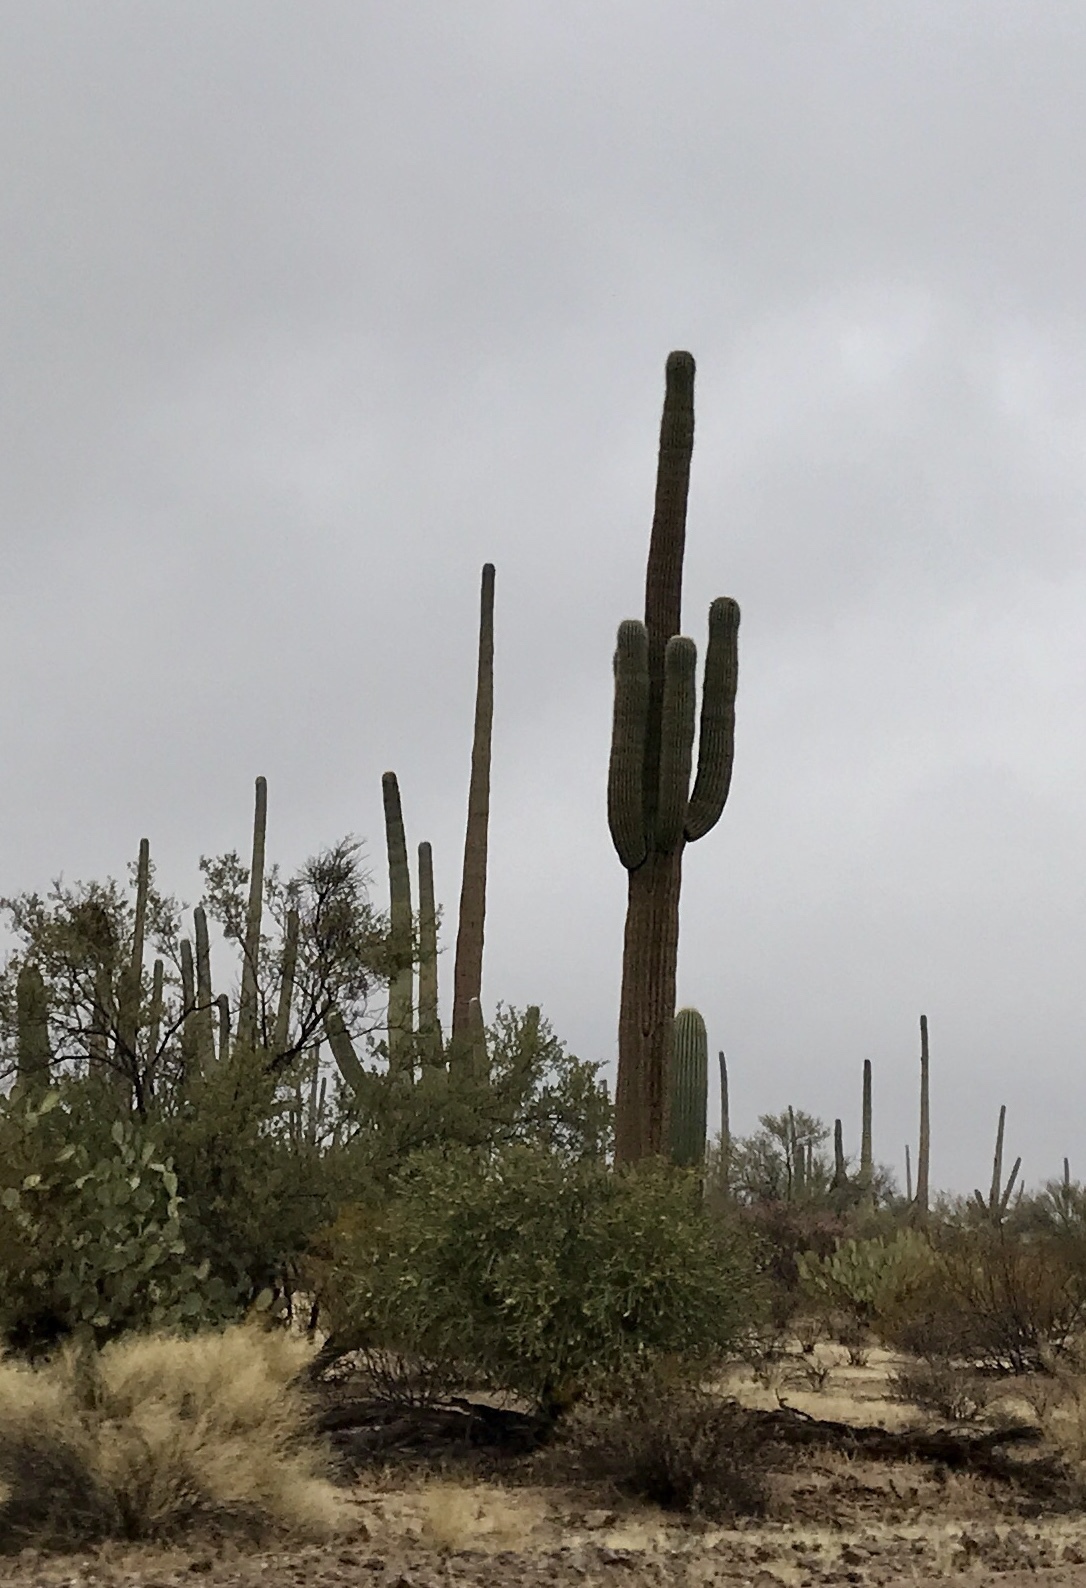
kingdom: Plantae
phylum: Tracheophyta
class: Magnoliopsida
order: Caryophyllales
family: Cactaceae
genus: Carnegiea
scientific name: Carnegiea gigantea
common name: Saguaro
